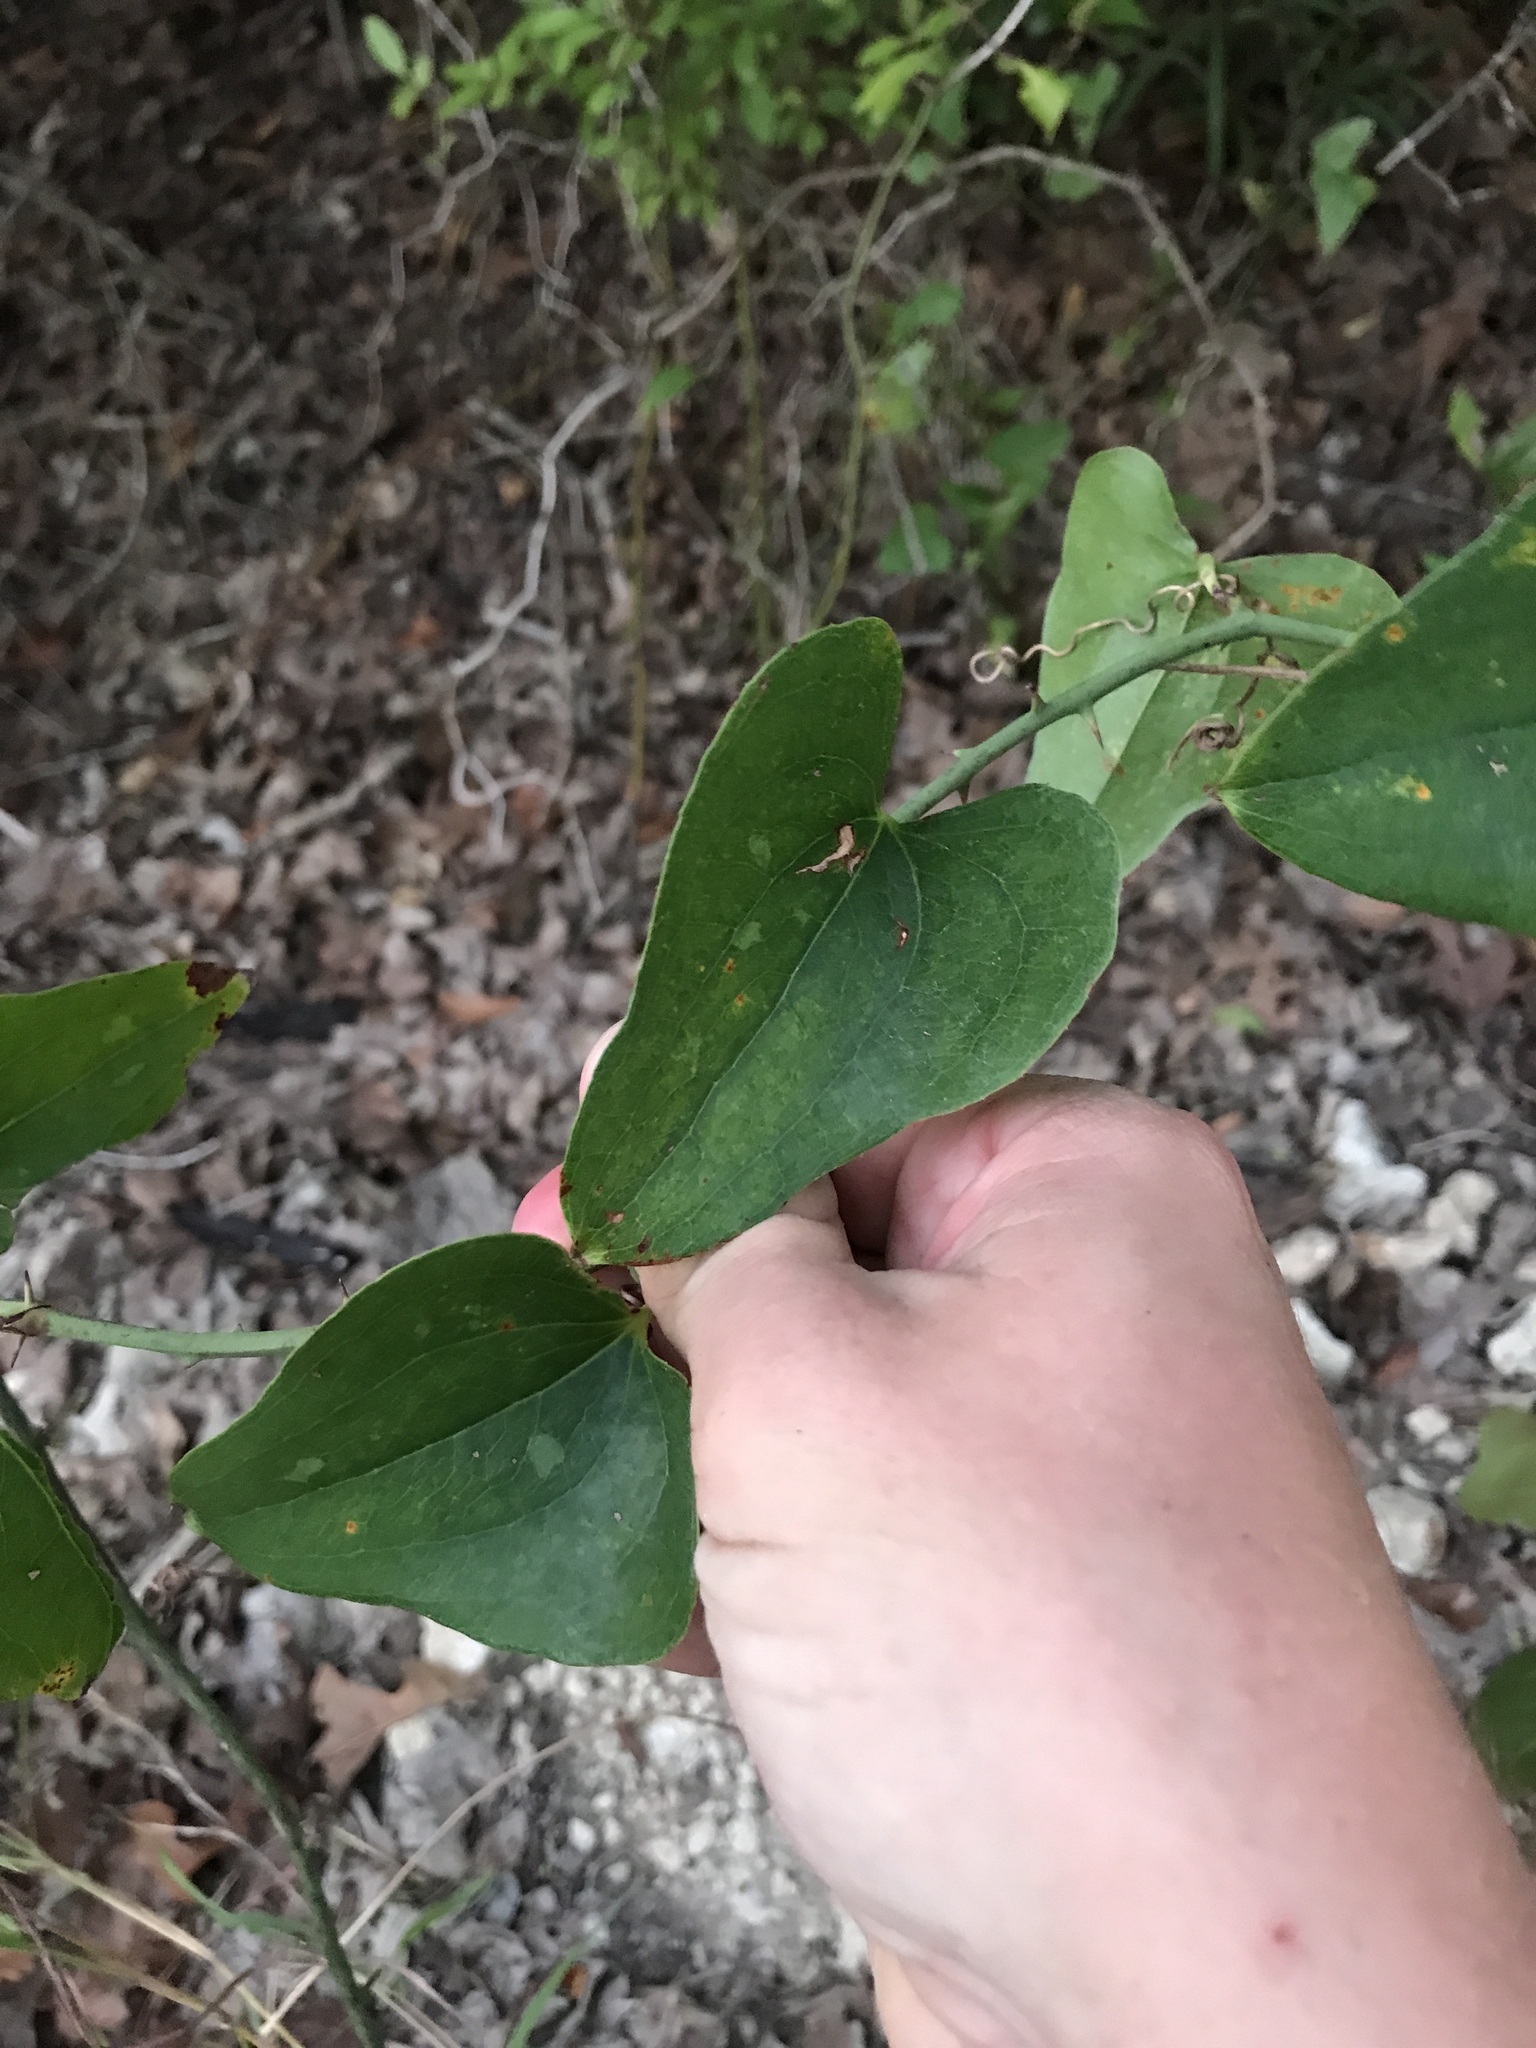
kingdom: Plantae
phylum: Tracheophyta
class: Liliopsida
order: Liliales
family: Smilacaceae
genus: Smilax
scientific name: Smilax bona-nox
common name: Catbrier
